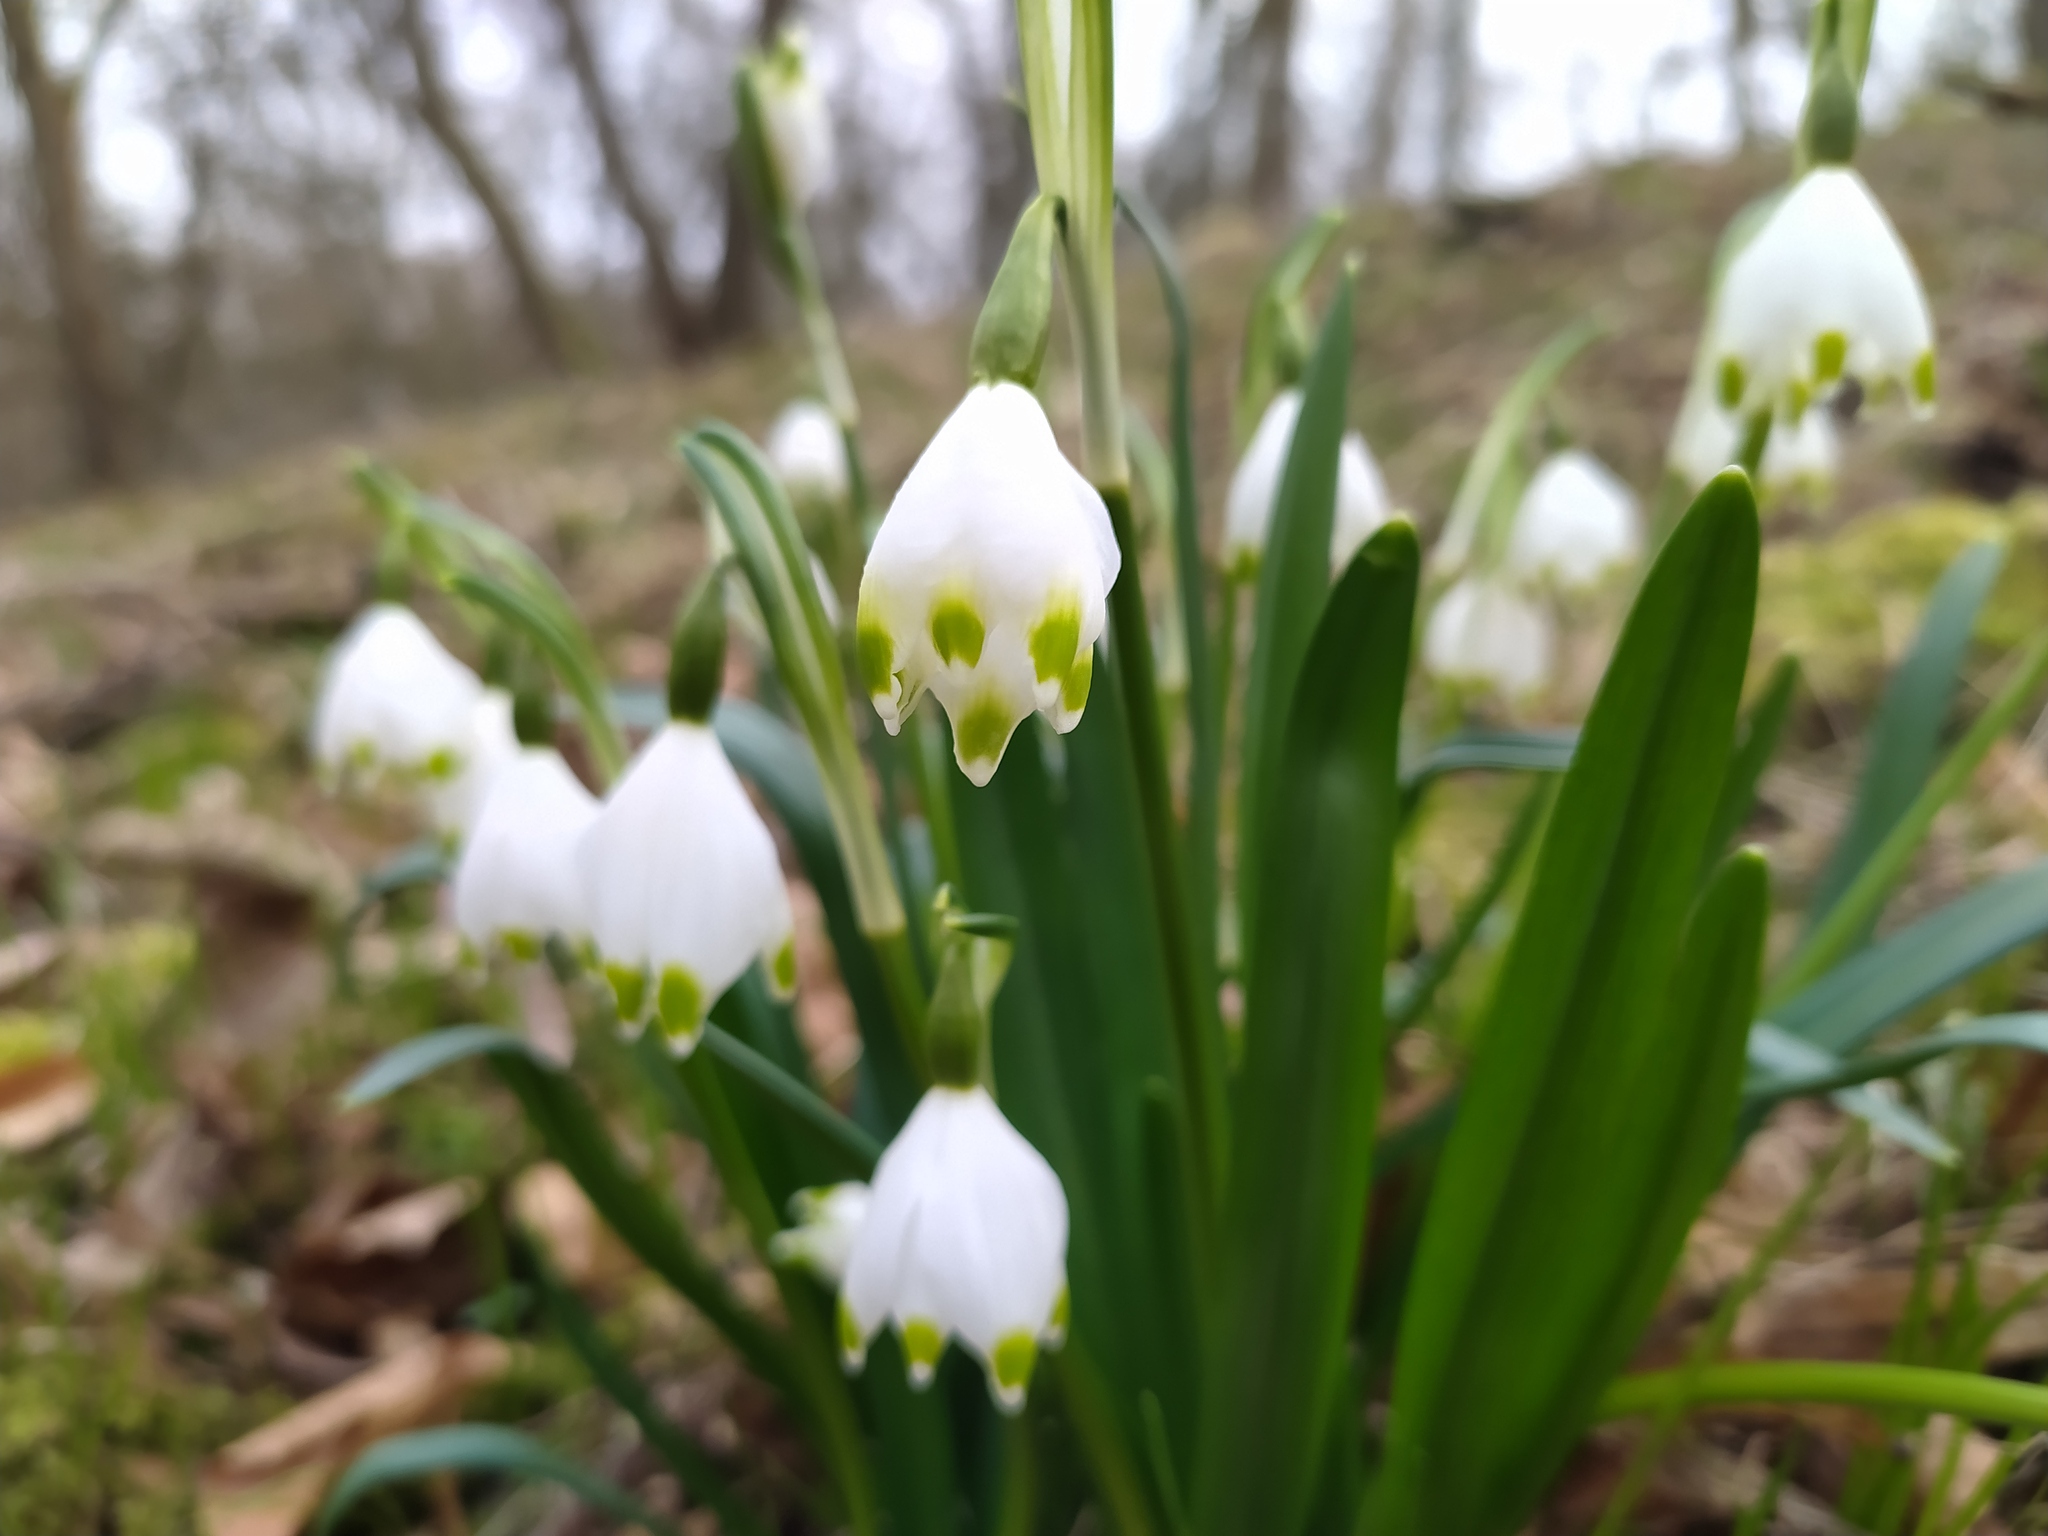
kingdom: Plantae
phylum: Tracheophyta
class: Liliopsida
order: Asparagales
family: Amaryllidaceae
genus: Leucojum
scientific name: Leucojum vernum
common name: Spring snowflake
